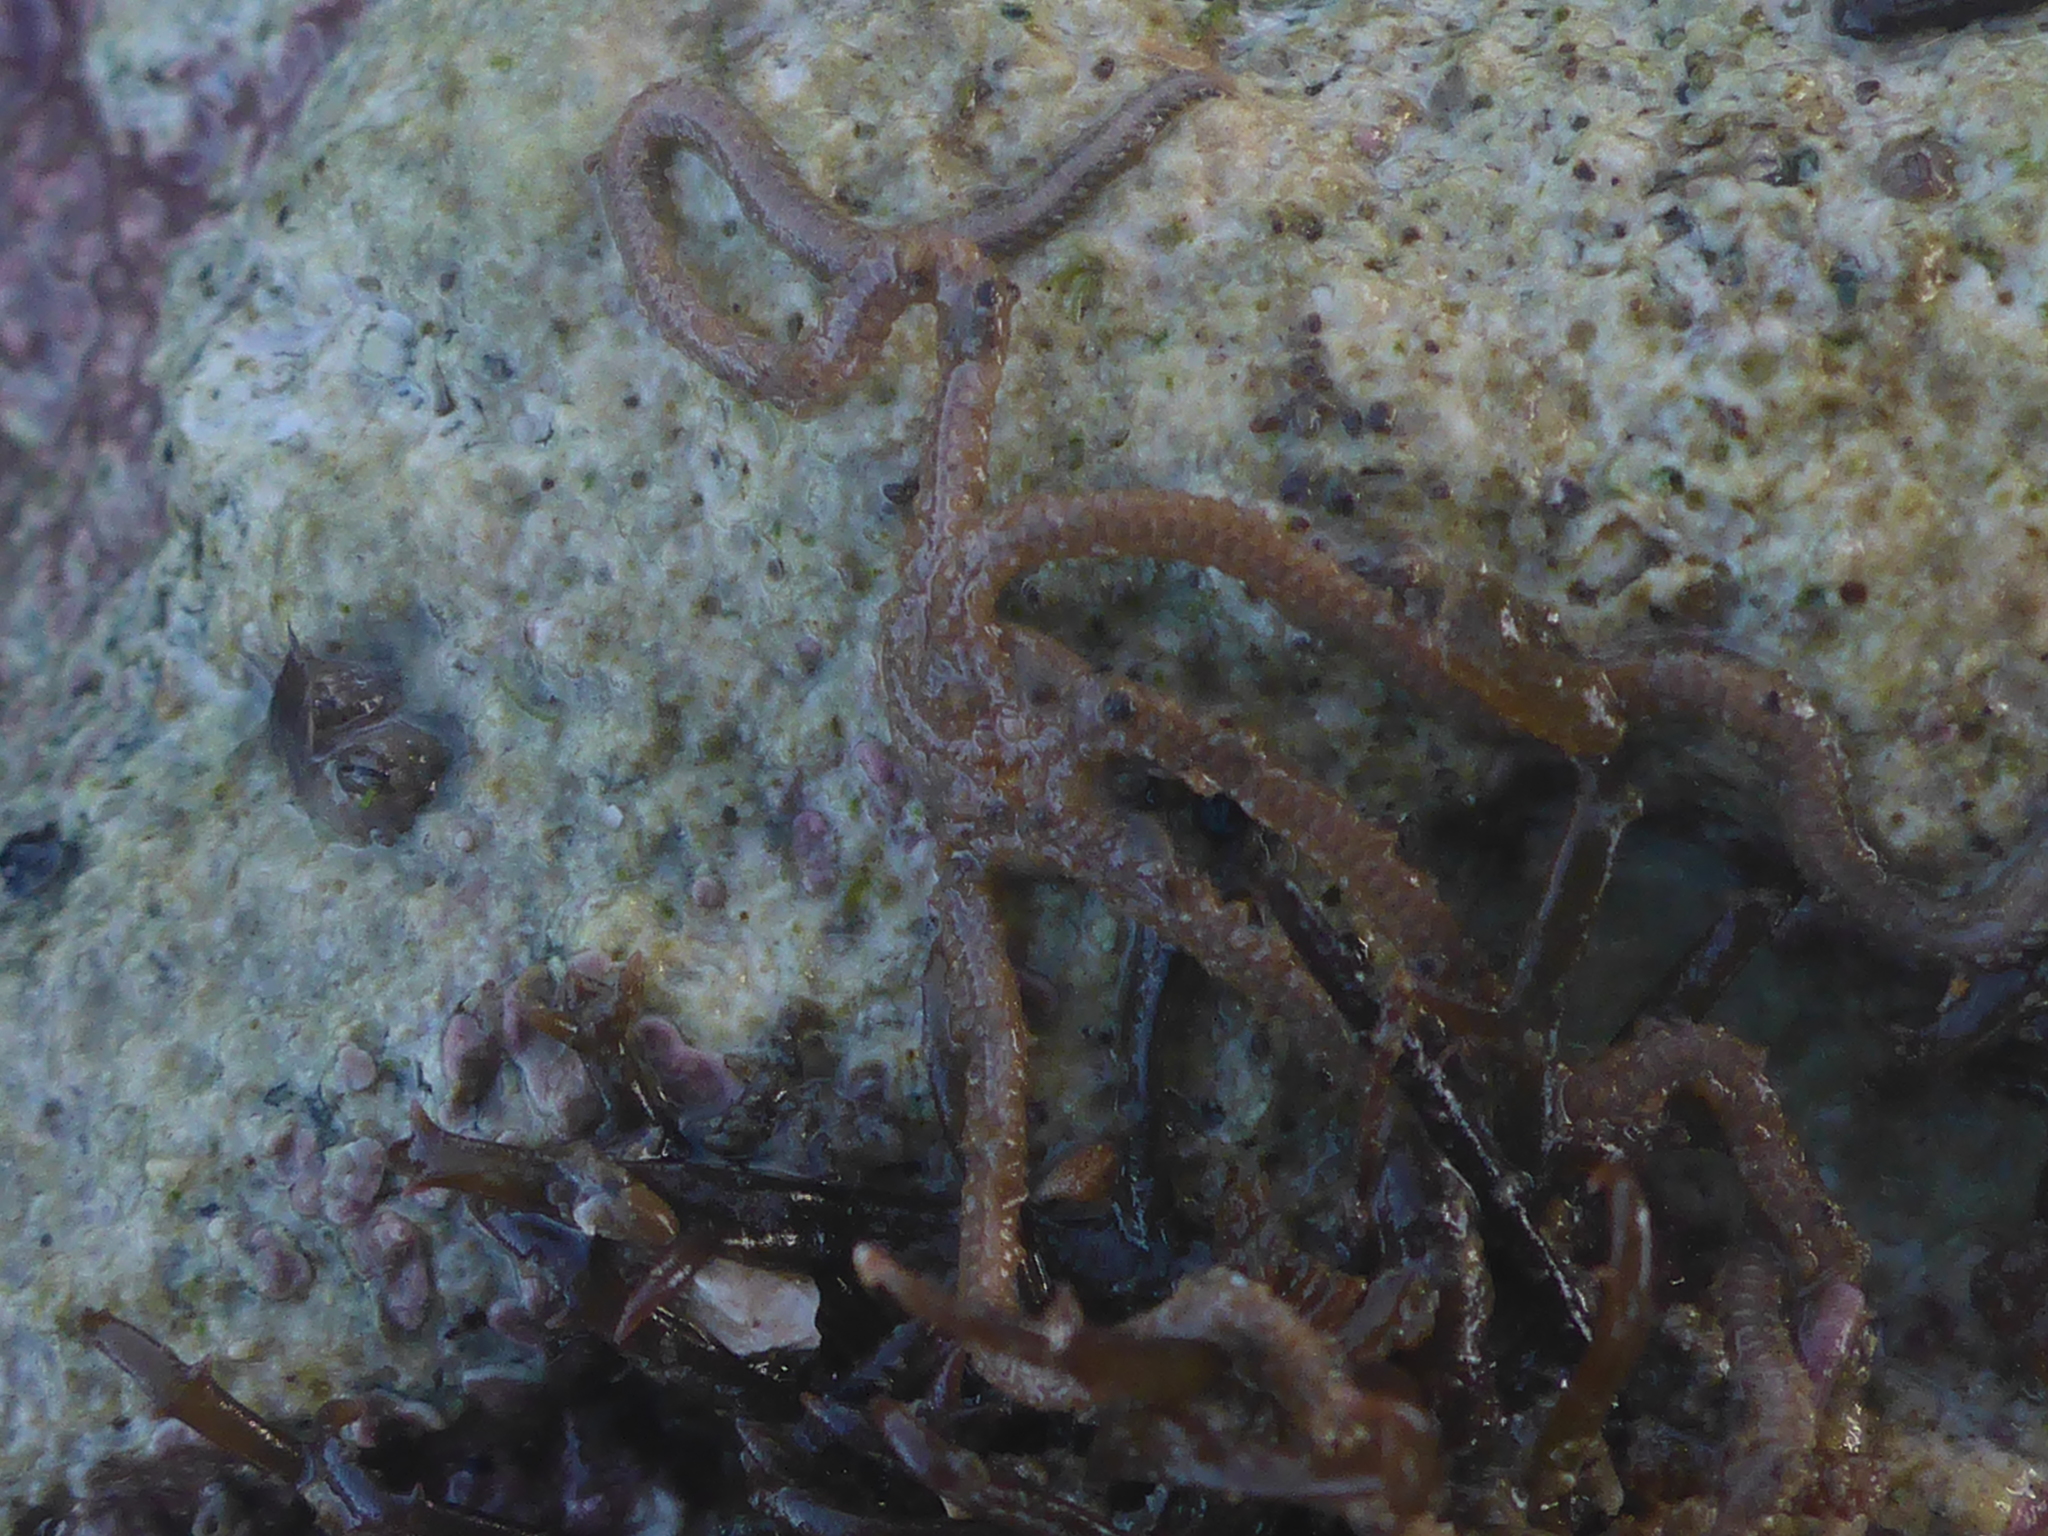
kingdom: Animalia
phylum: Echinodermata
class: Ophiuroidea
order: Amphilepidida
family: Amphiuridae
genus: Amphiodia
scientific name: Amphiodia occidentalis
